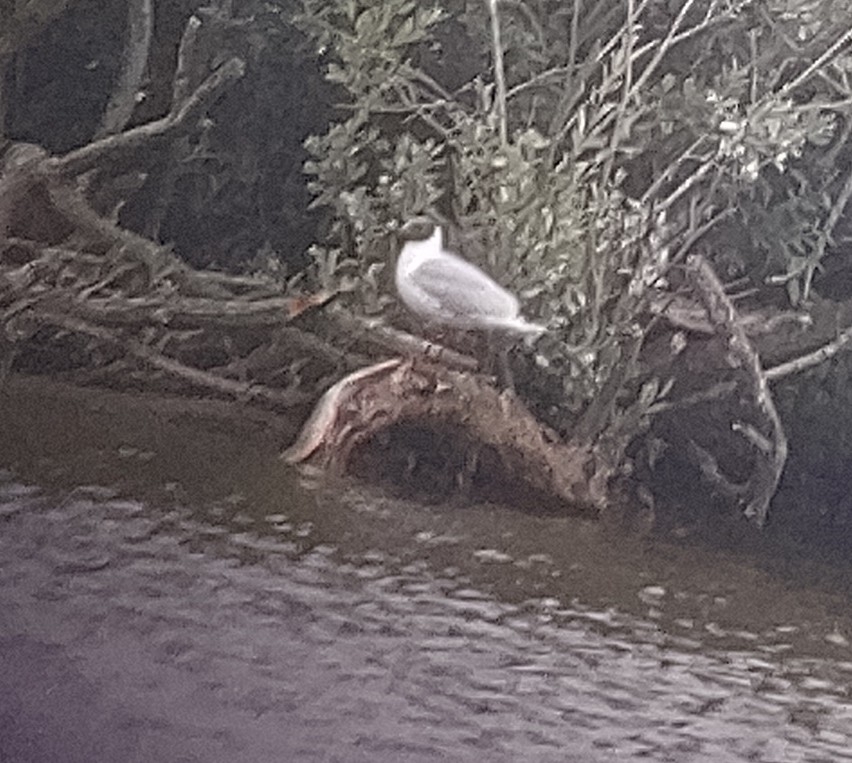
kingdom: Animalia
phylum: Chordata
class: Aves
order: Charadriiformes
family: Laridae
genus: Chroicocephalus
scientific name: Chroicocephalus ridibundus
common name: Black-headed gull
